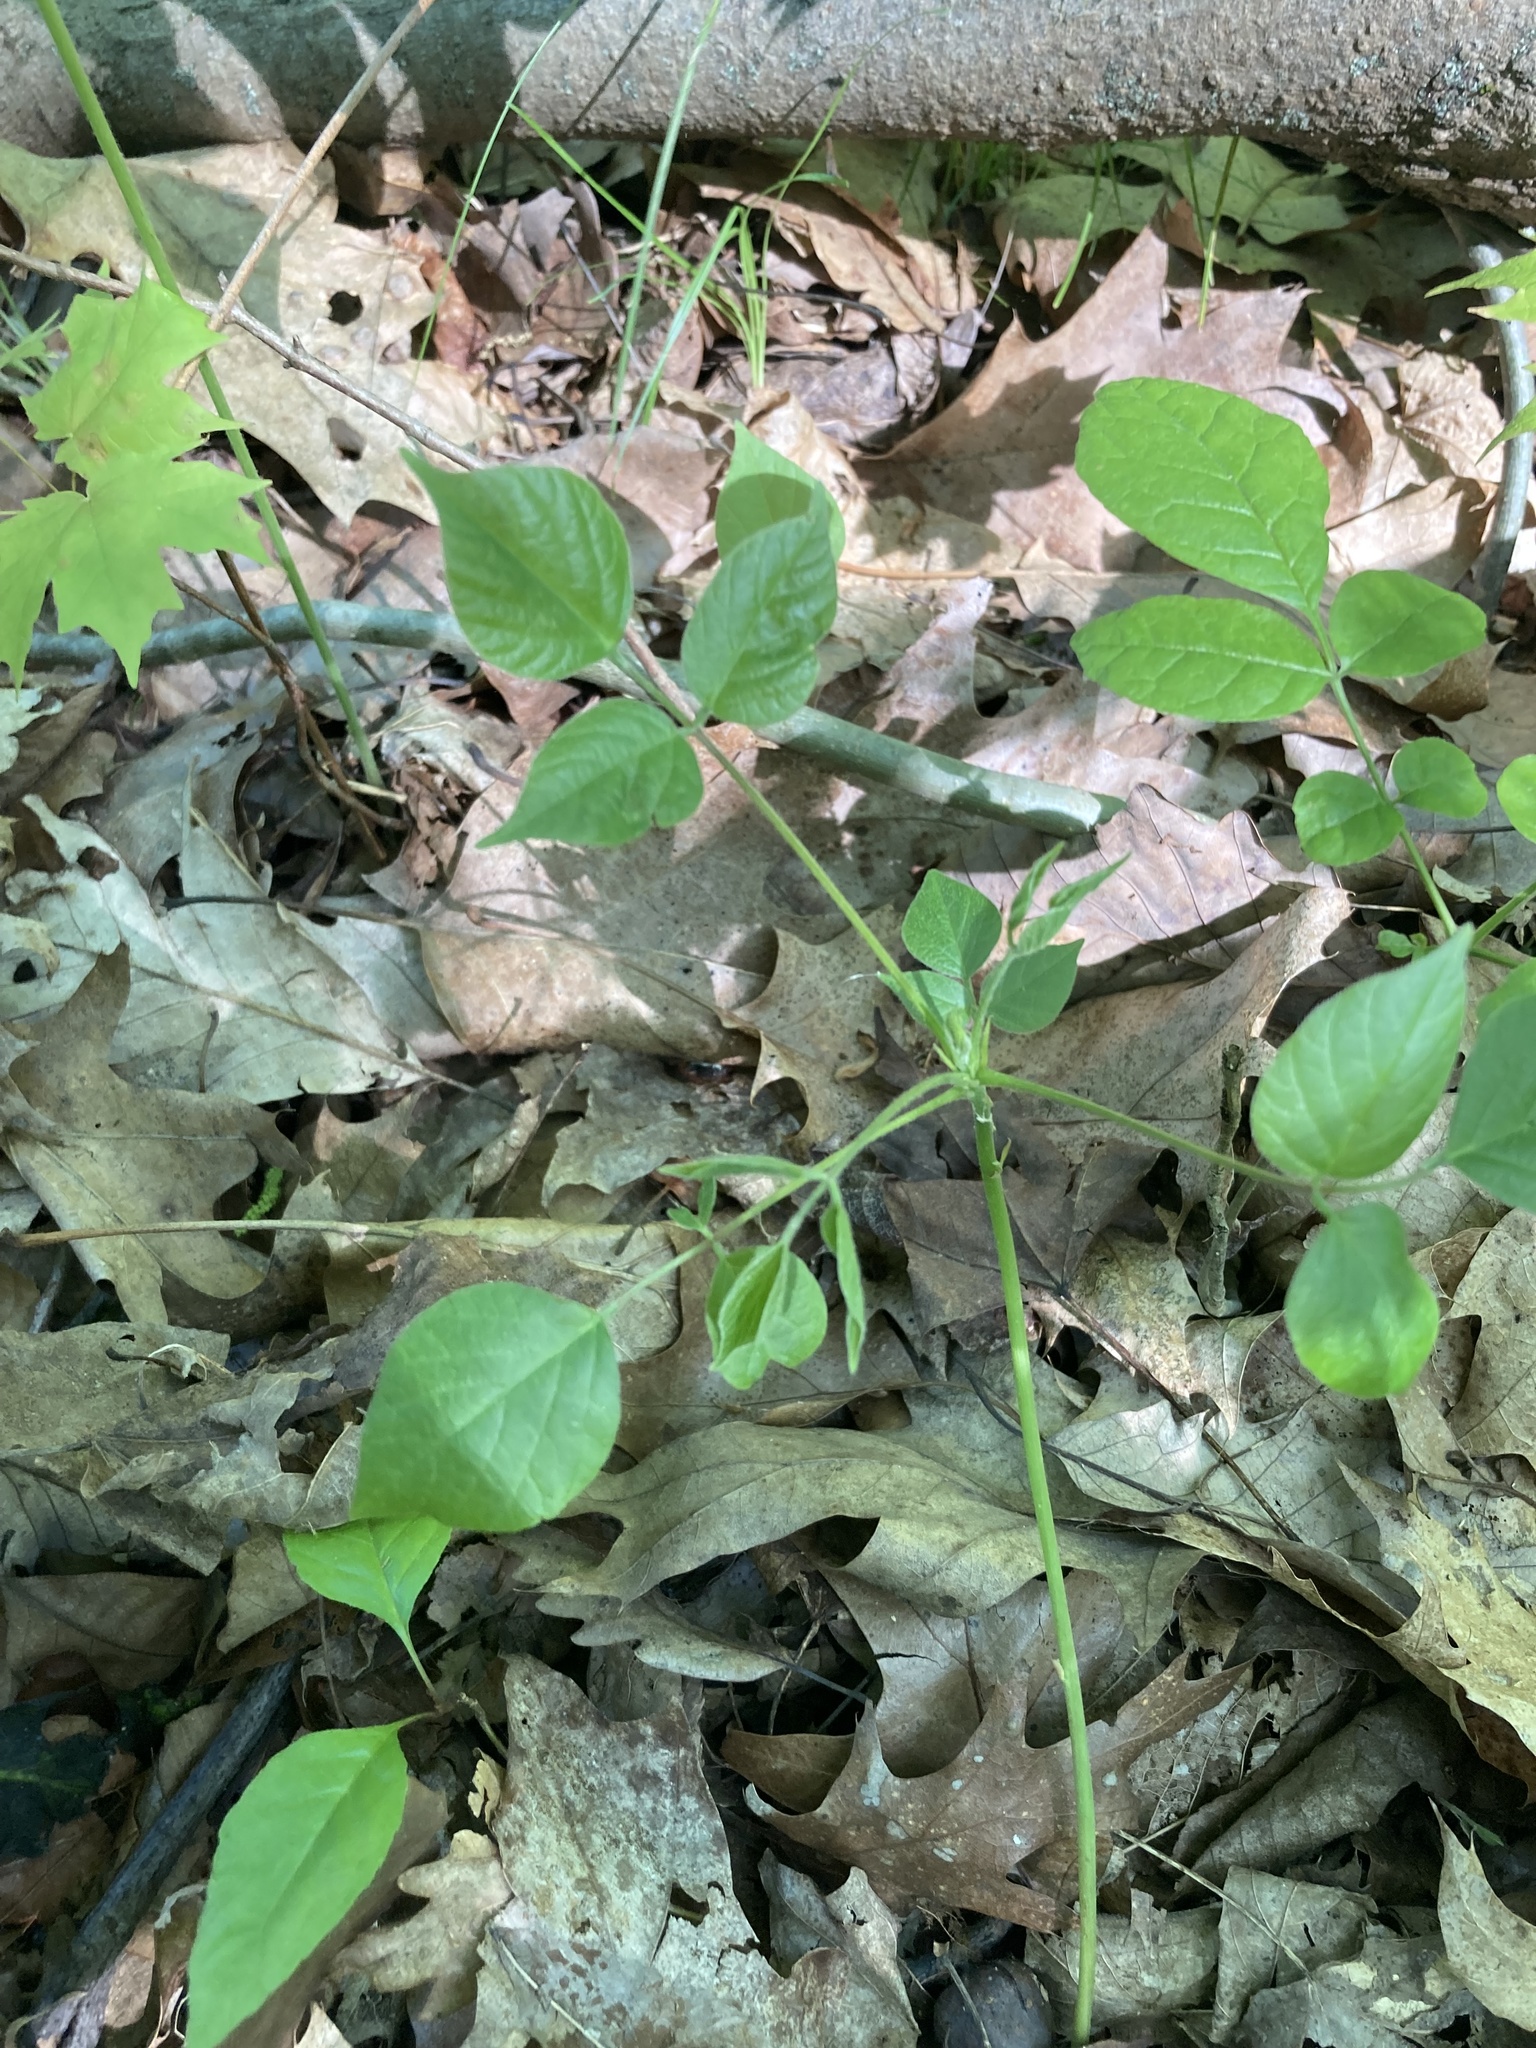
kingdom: Plantae
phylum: Tracheophyta
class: Magnoliopsida
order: Fabales
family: Fabaceae
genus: Hylodesmum
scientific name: Hylodesmum glutinosum
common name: Clustered-leaved tick-trefoil
